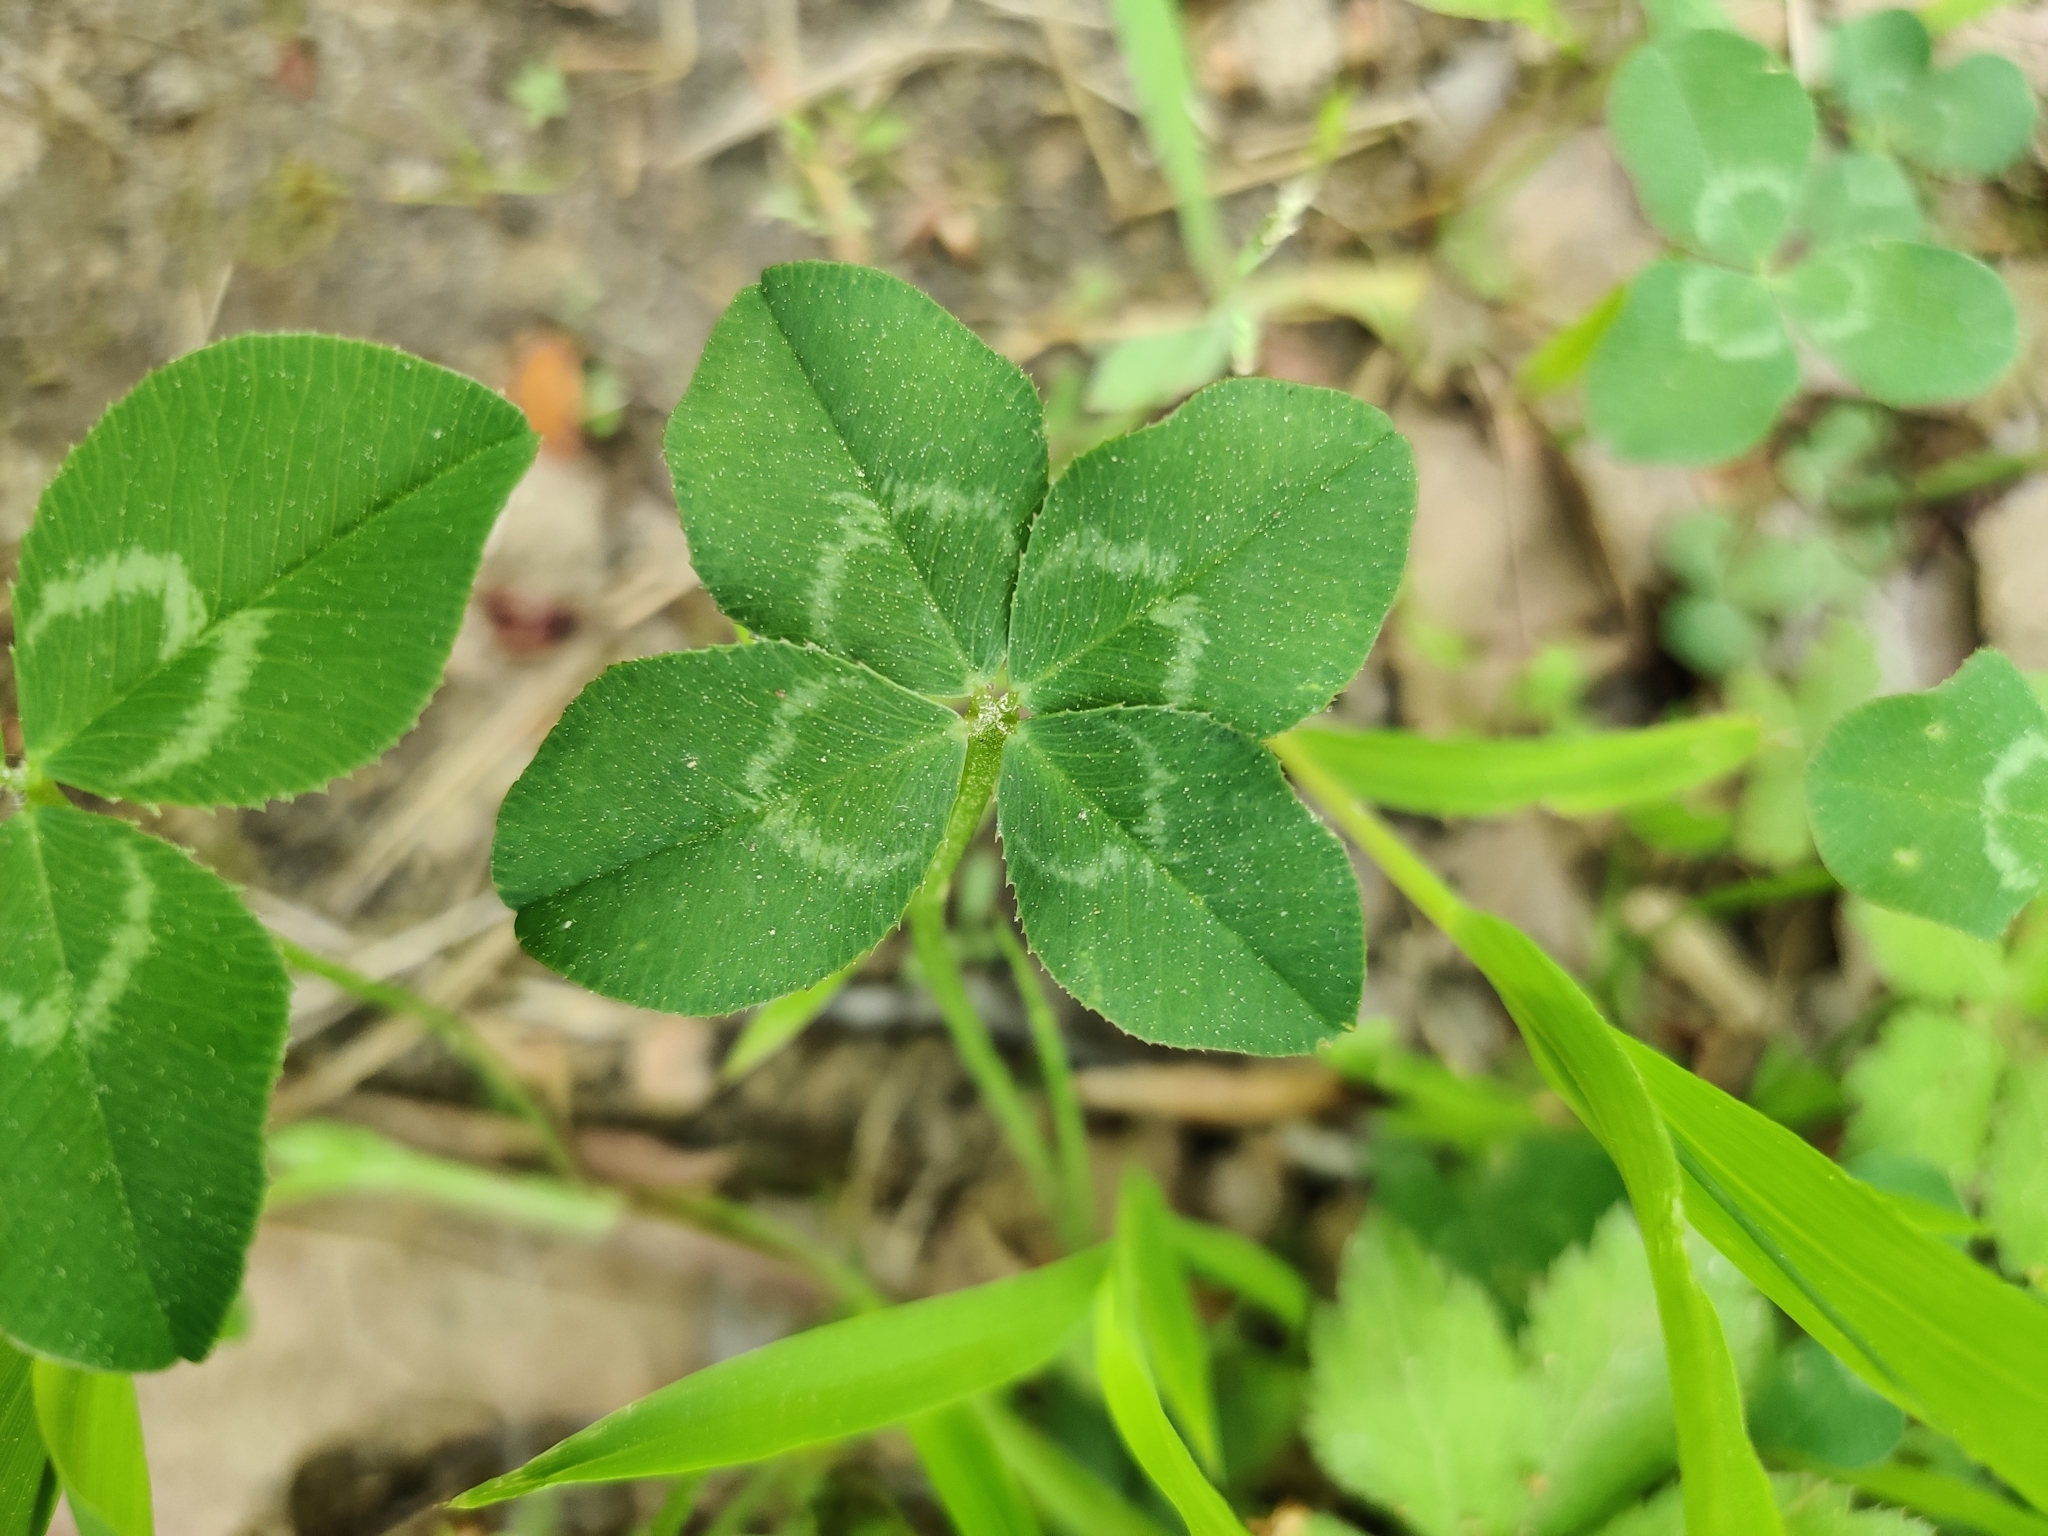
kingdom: Plantae
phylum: Tracheophyta
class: Magnoliopsida
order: Fabales
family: Fabaceae
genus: Trifolium
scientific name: Trifolium repens
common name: White clover
